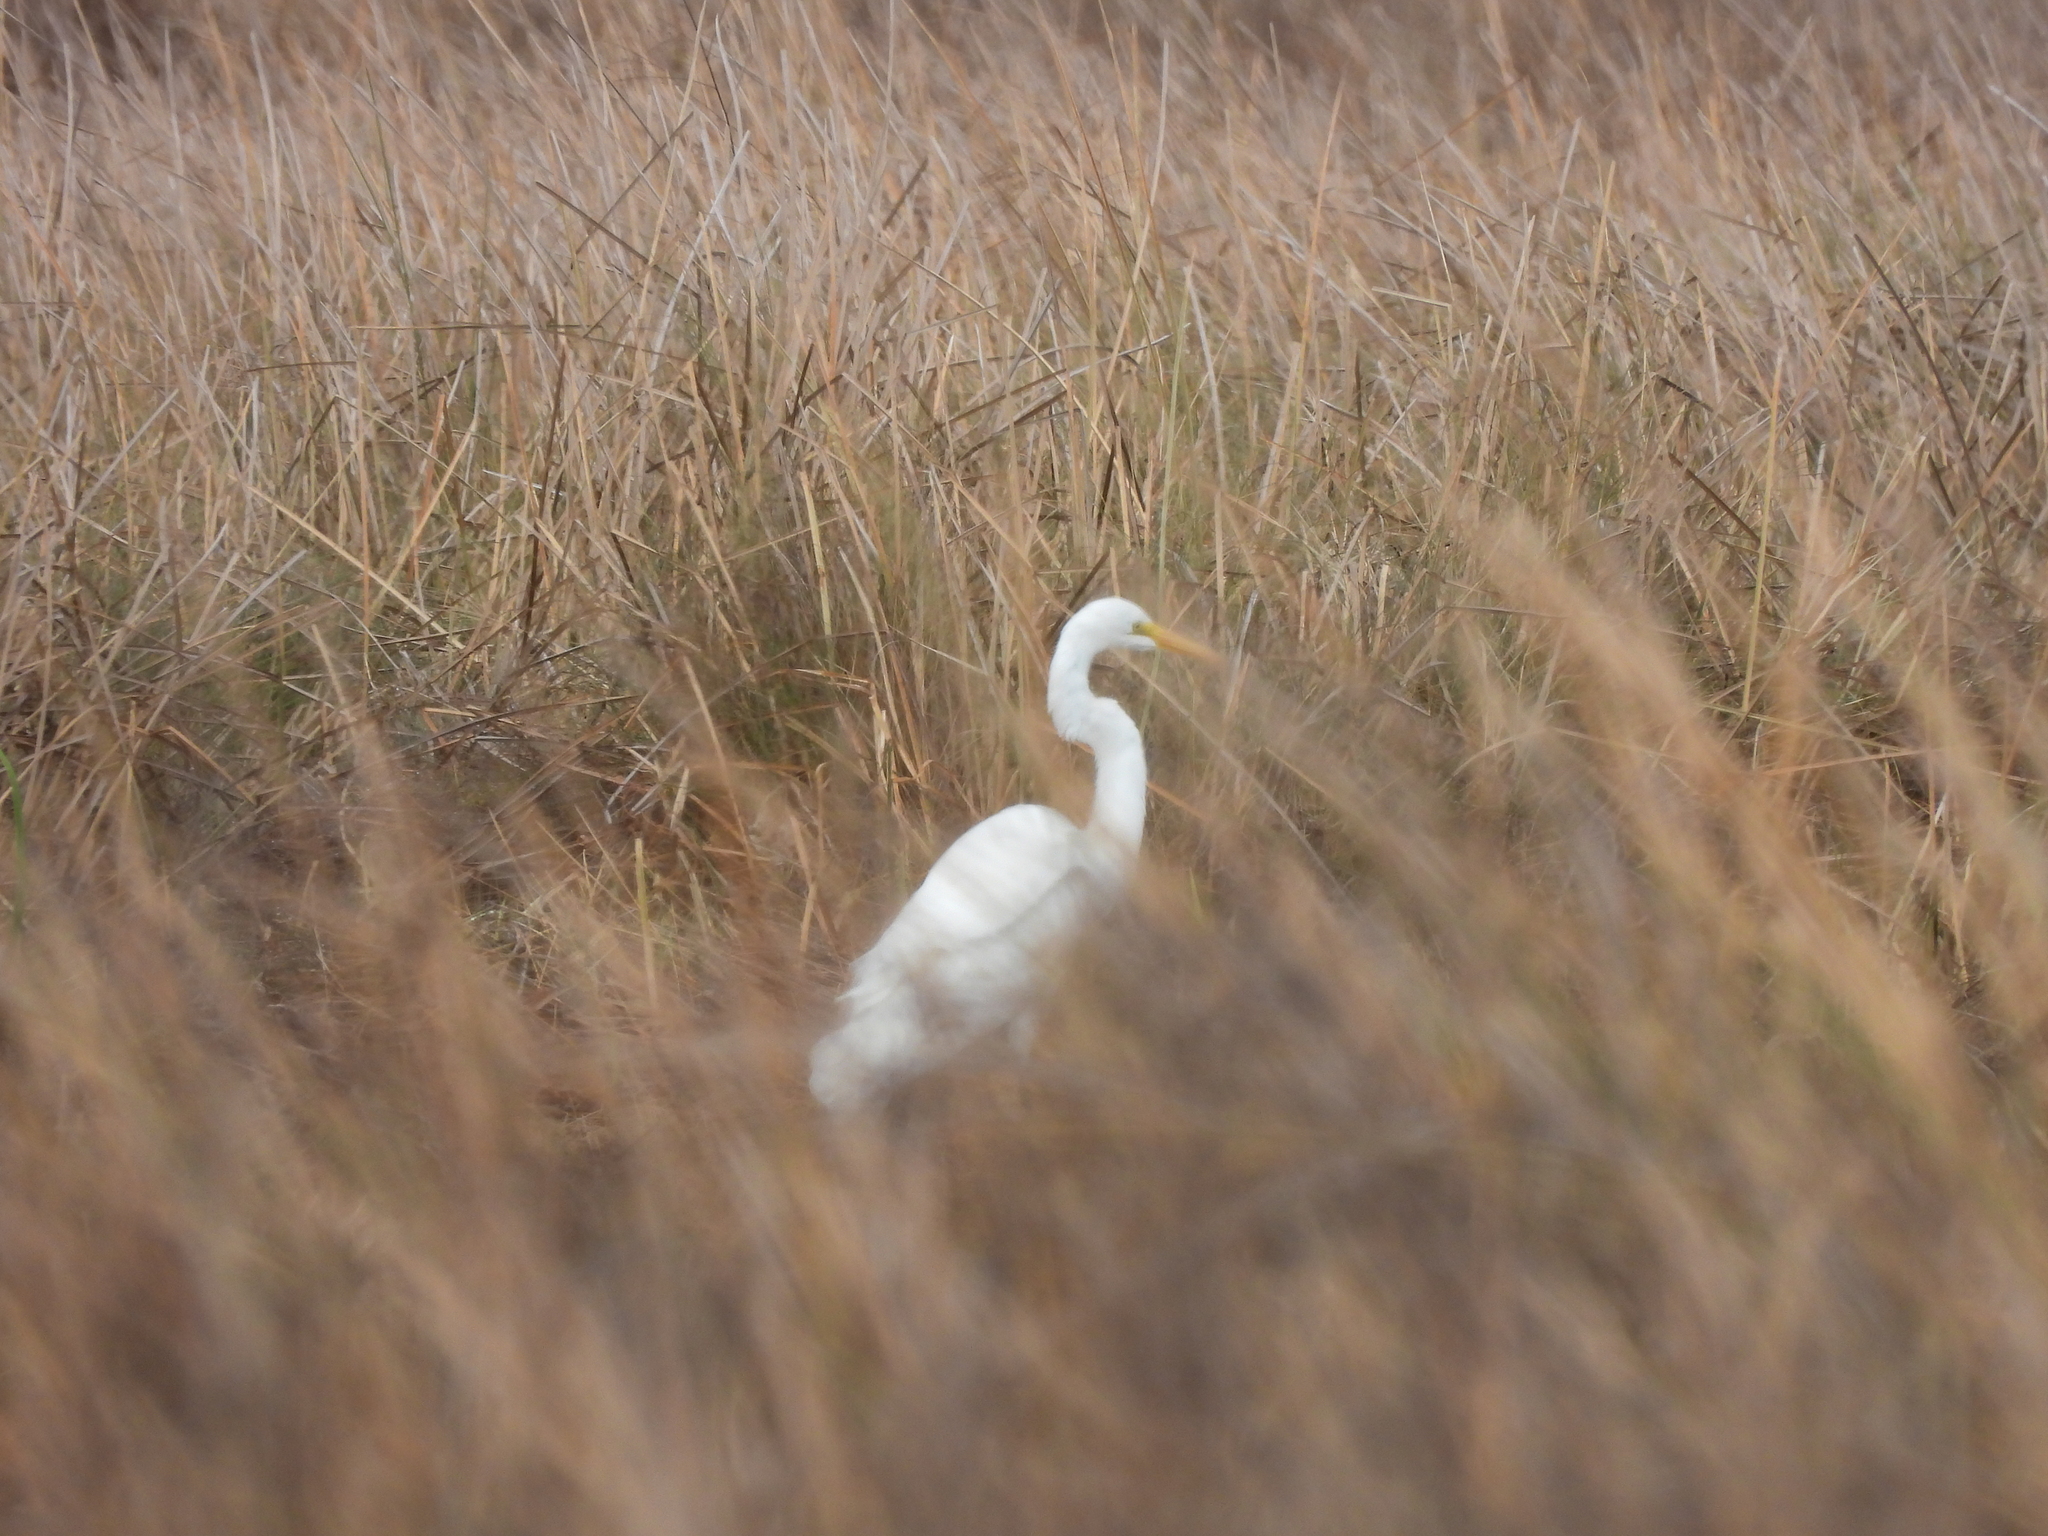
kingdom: Animalia
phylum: Chordata
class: Aves
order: Pelecaniformes
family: Ardeidae
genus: Ardea
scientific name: Ardea alba
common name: Great egret
